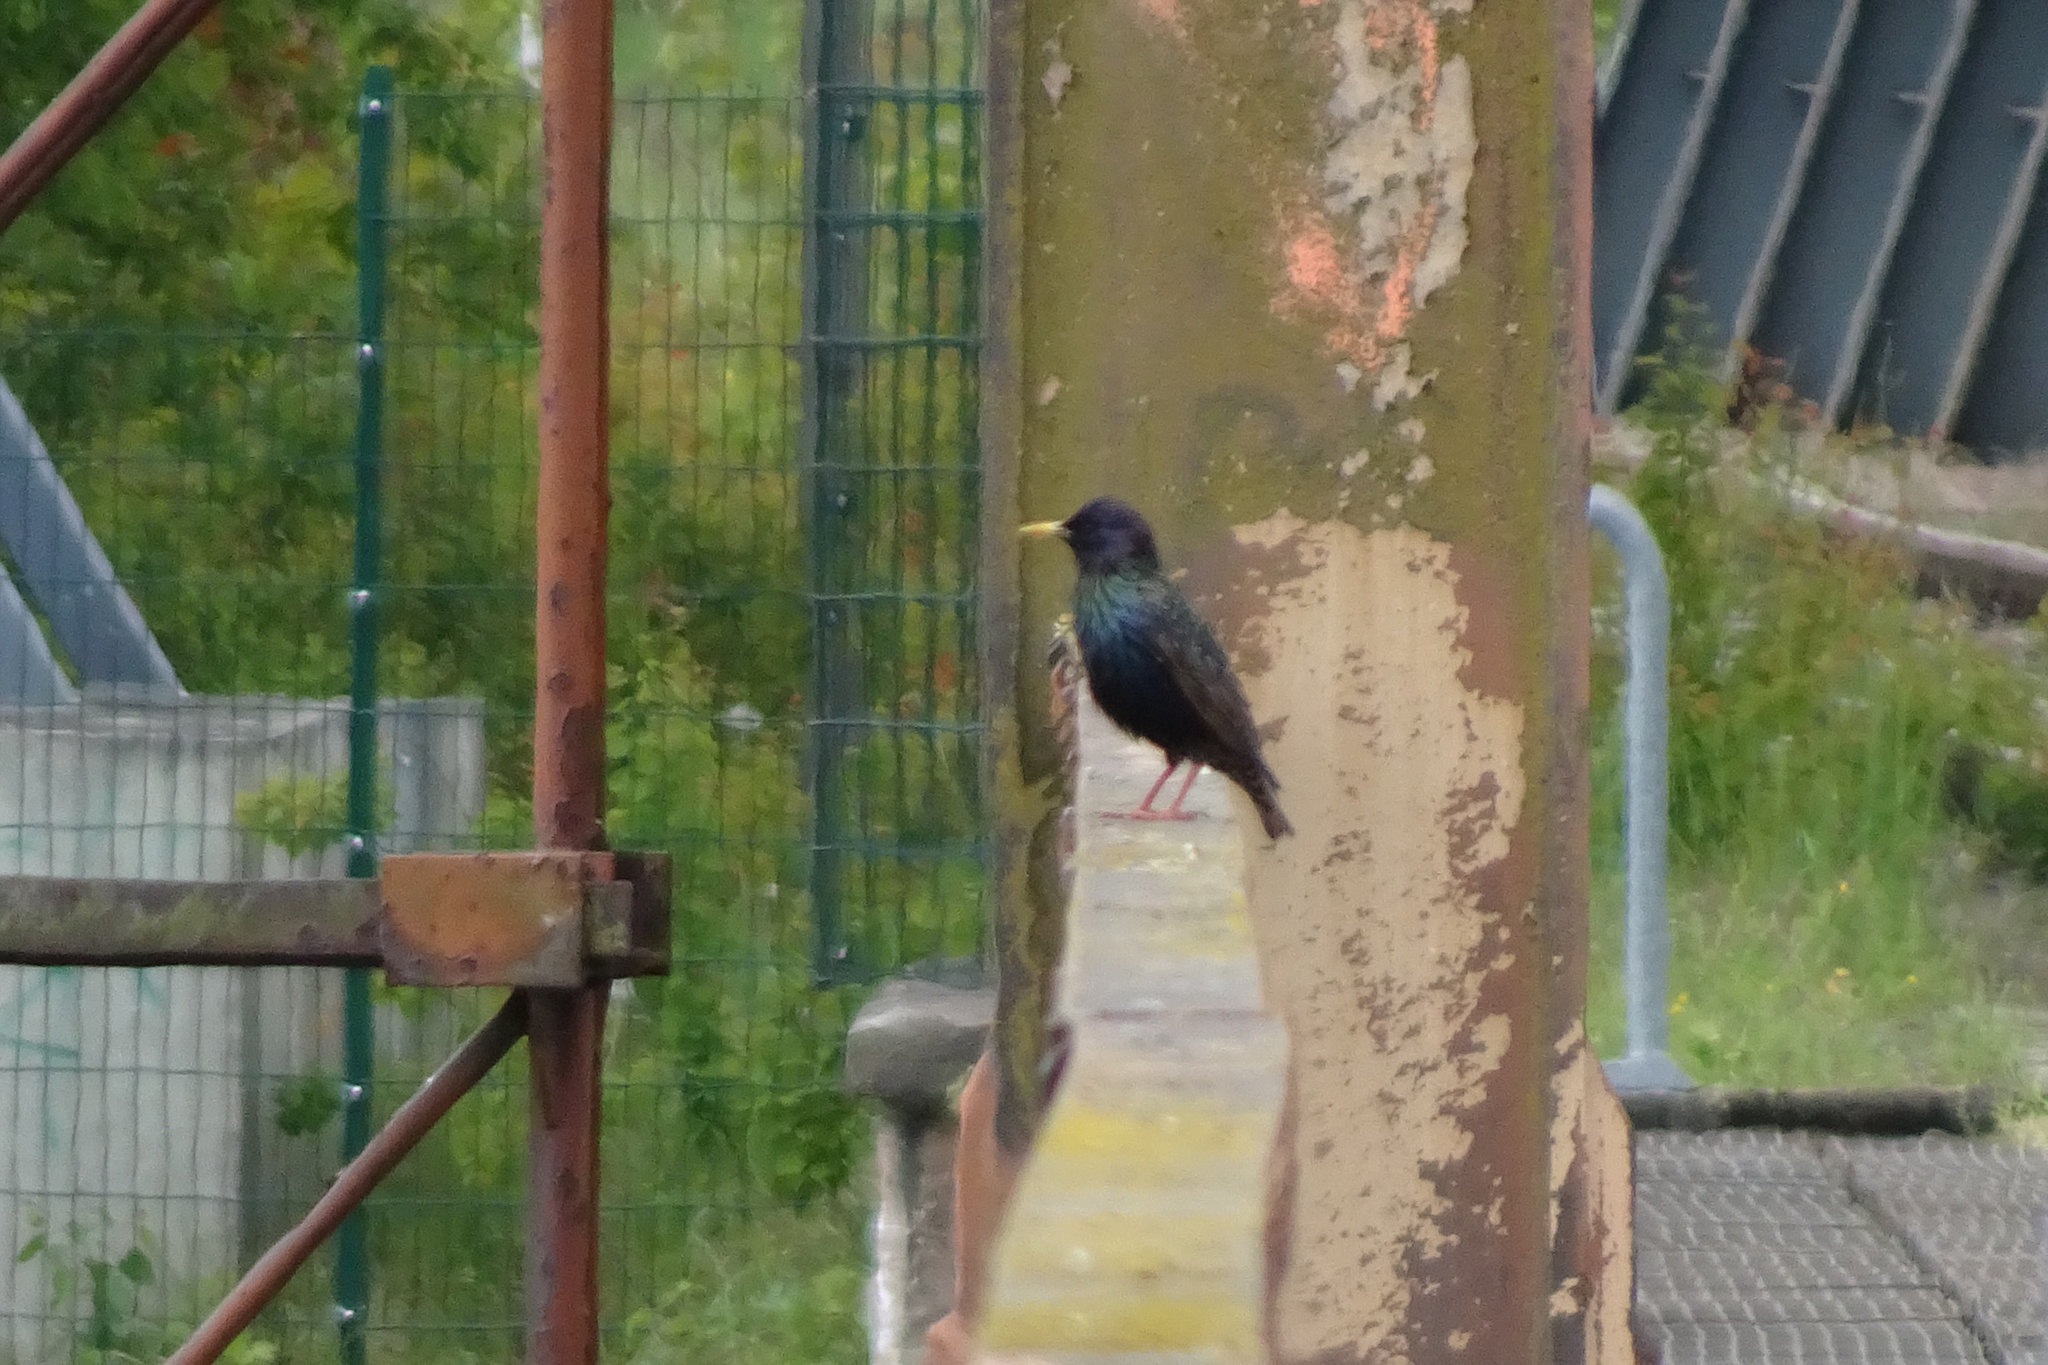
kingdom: Animalia
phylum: Chordata
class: Aves
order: Passeriformes
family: Sturnidae
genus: Sturnus
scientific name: Sturnus vulgaris
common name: Common starling
